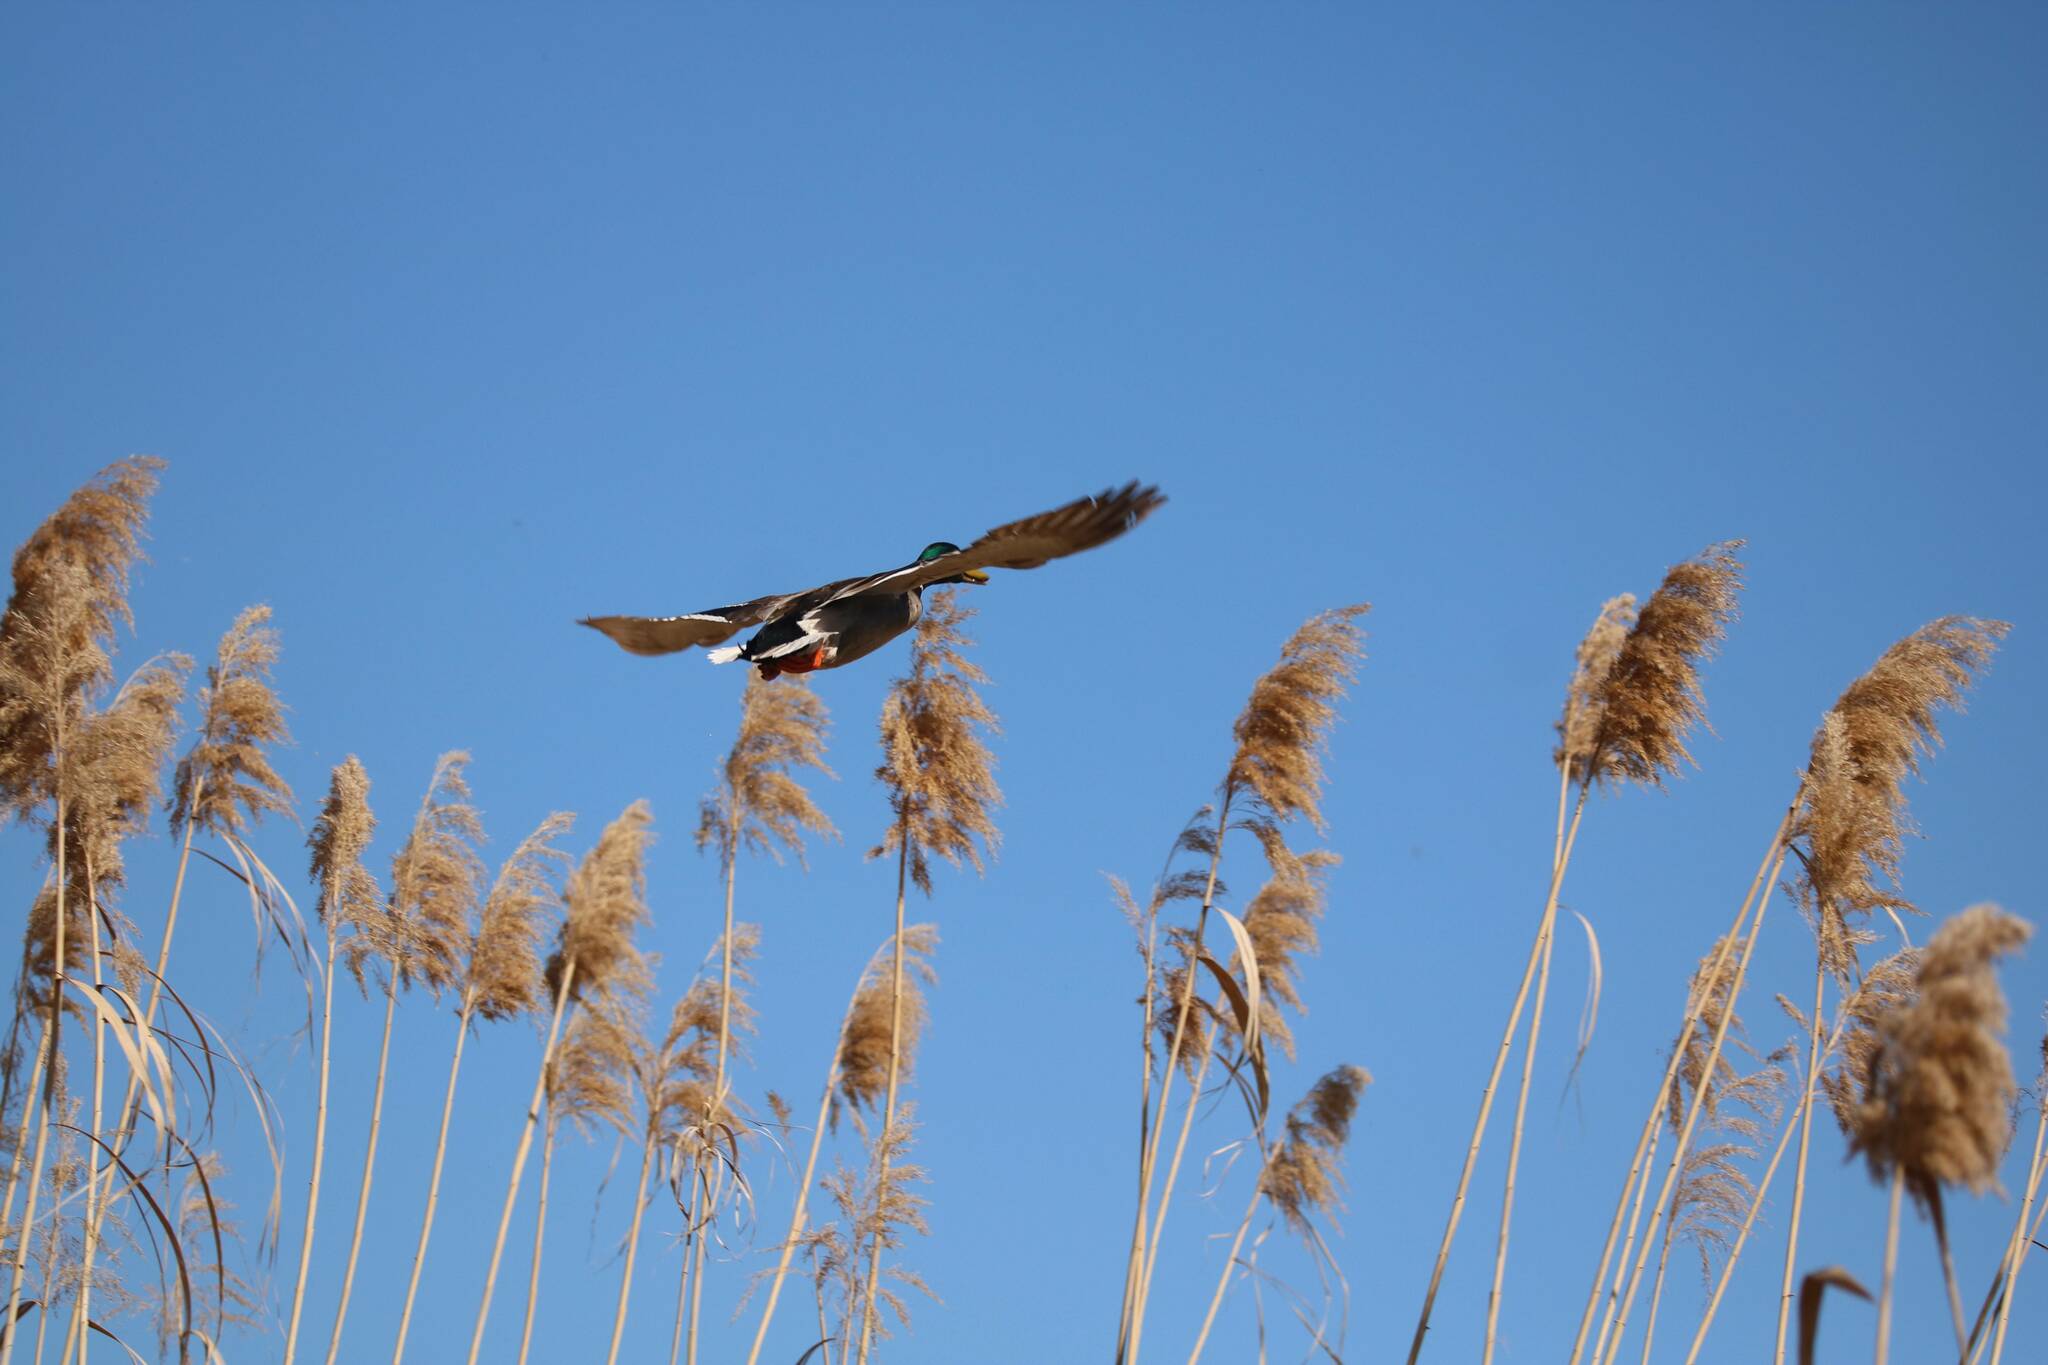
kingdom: Animalia
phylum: Chordata
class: Aves
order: Anseriformes
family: Anatidae
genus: Anas
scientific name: Anas platyrhynchos
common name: Mallard
